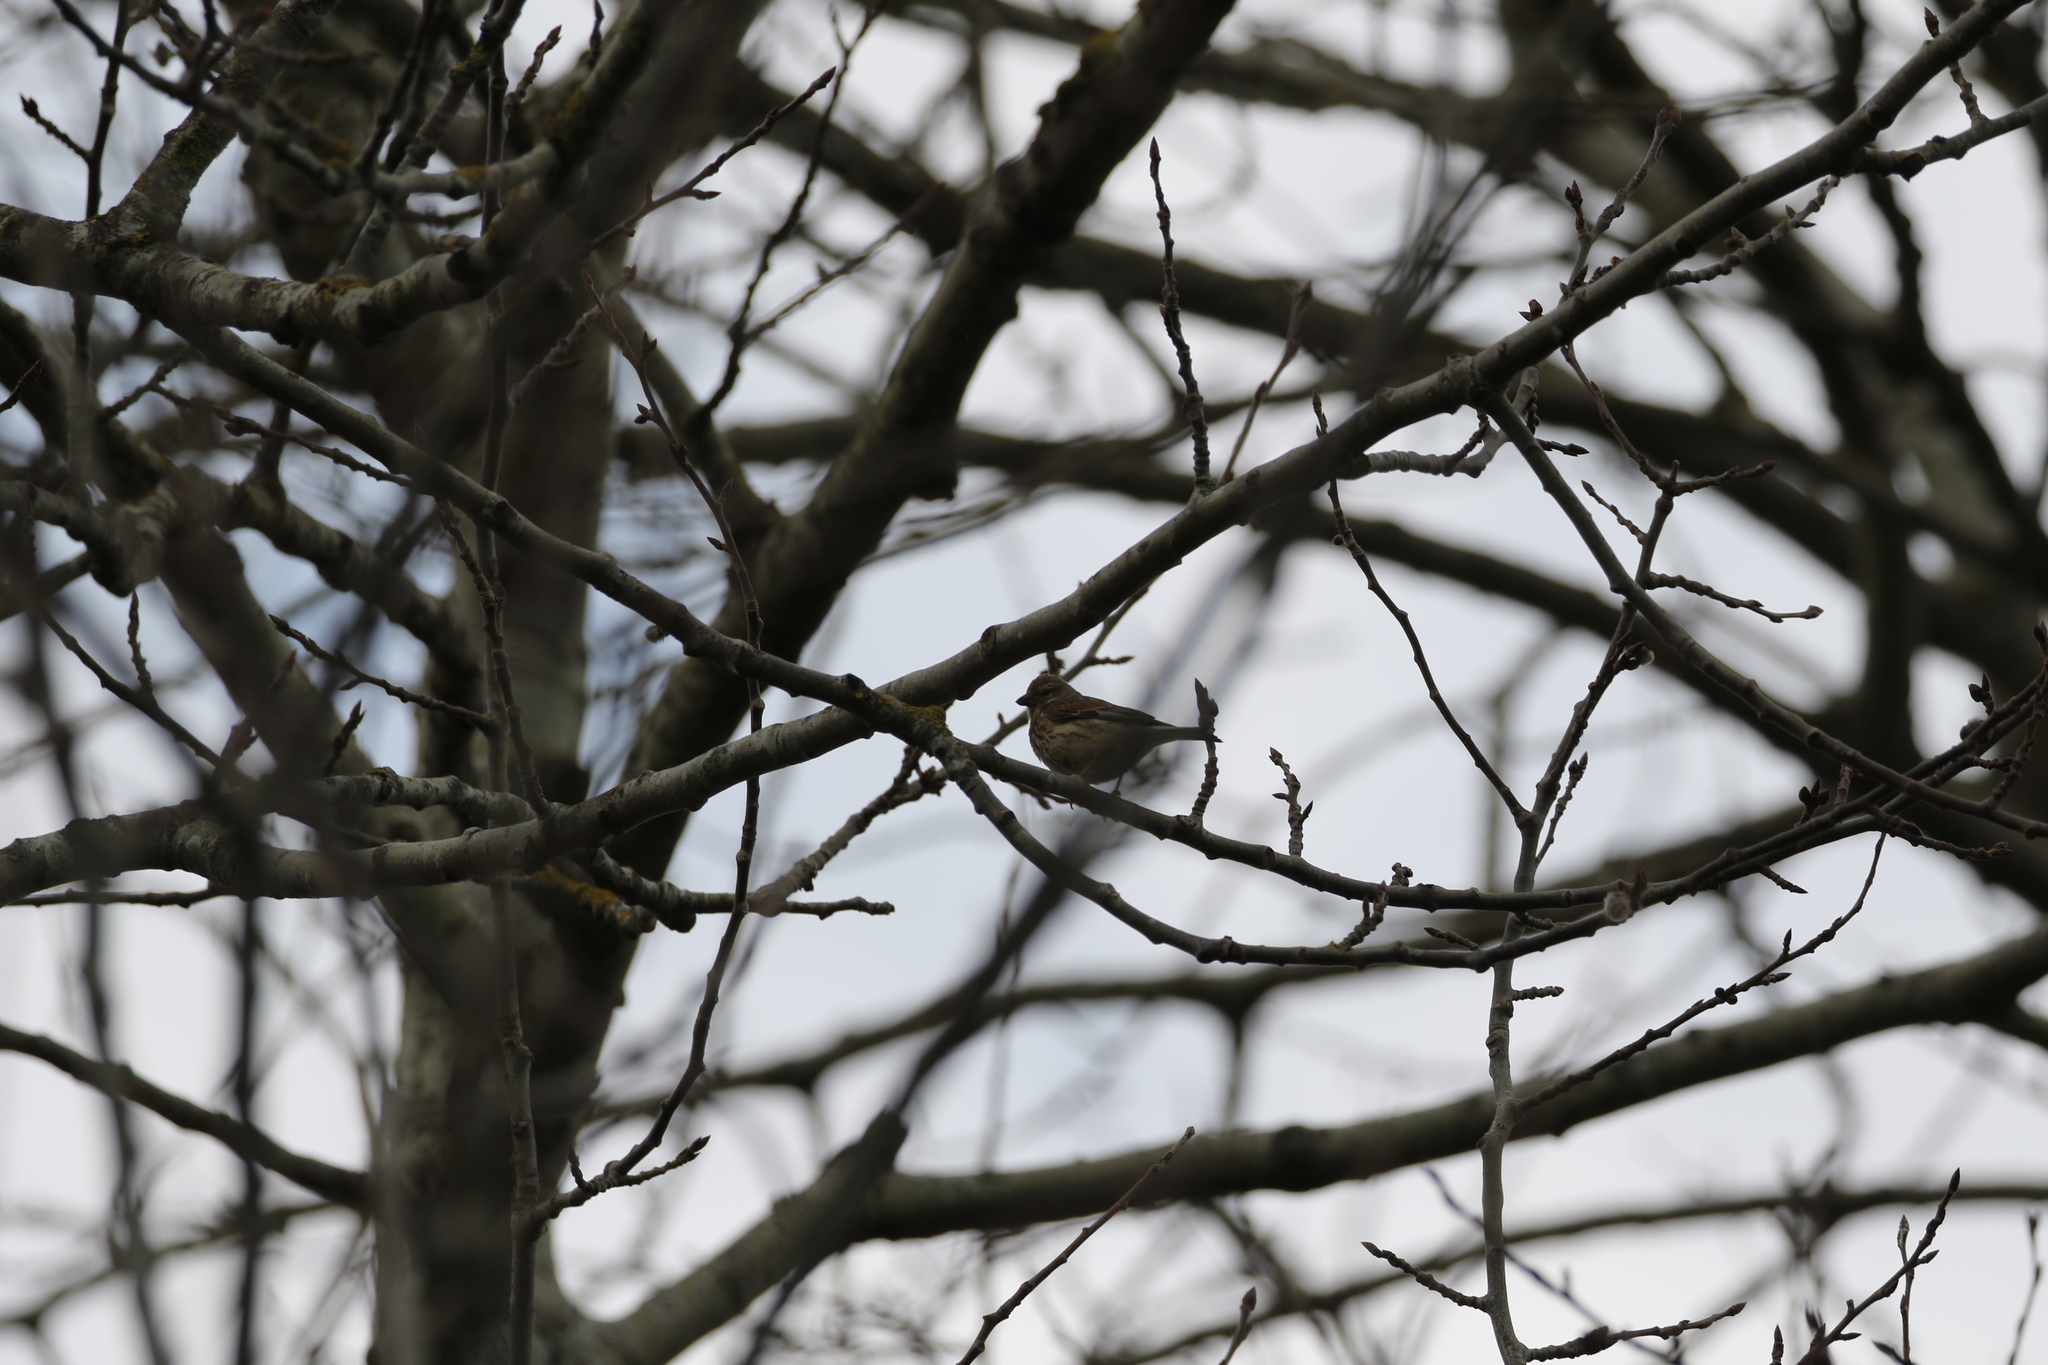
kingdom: Animalia
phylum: Chordata
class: Aves
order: Passeriformes
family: Fringillidae
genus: Linaria
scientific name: Linaria cannabina
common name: Common linnet
